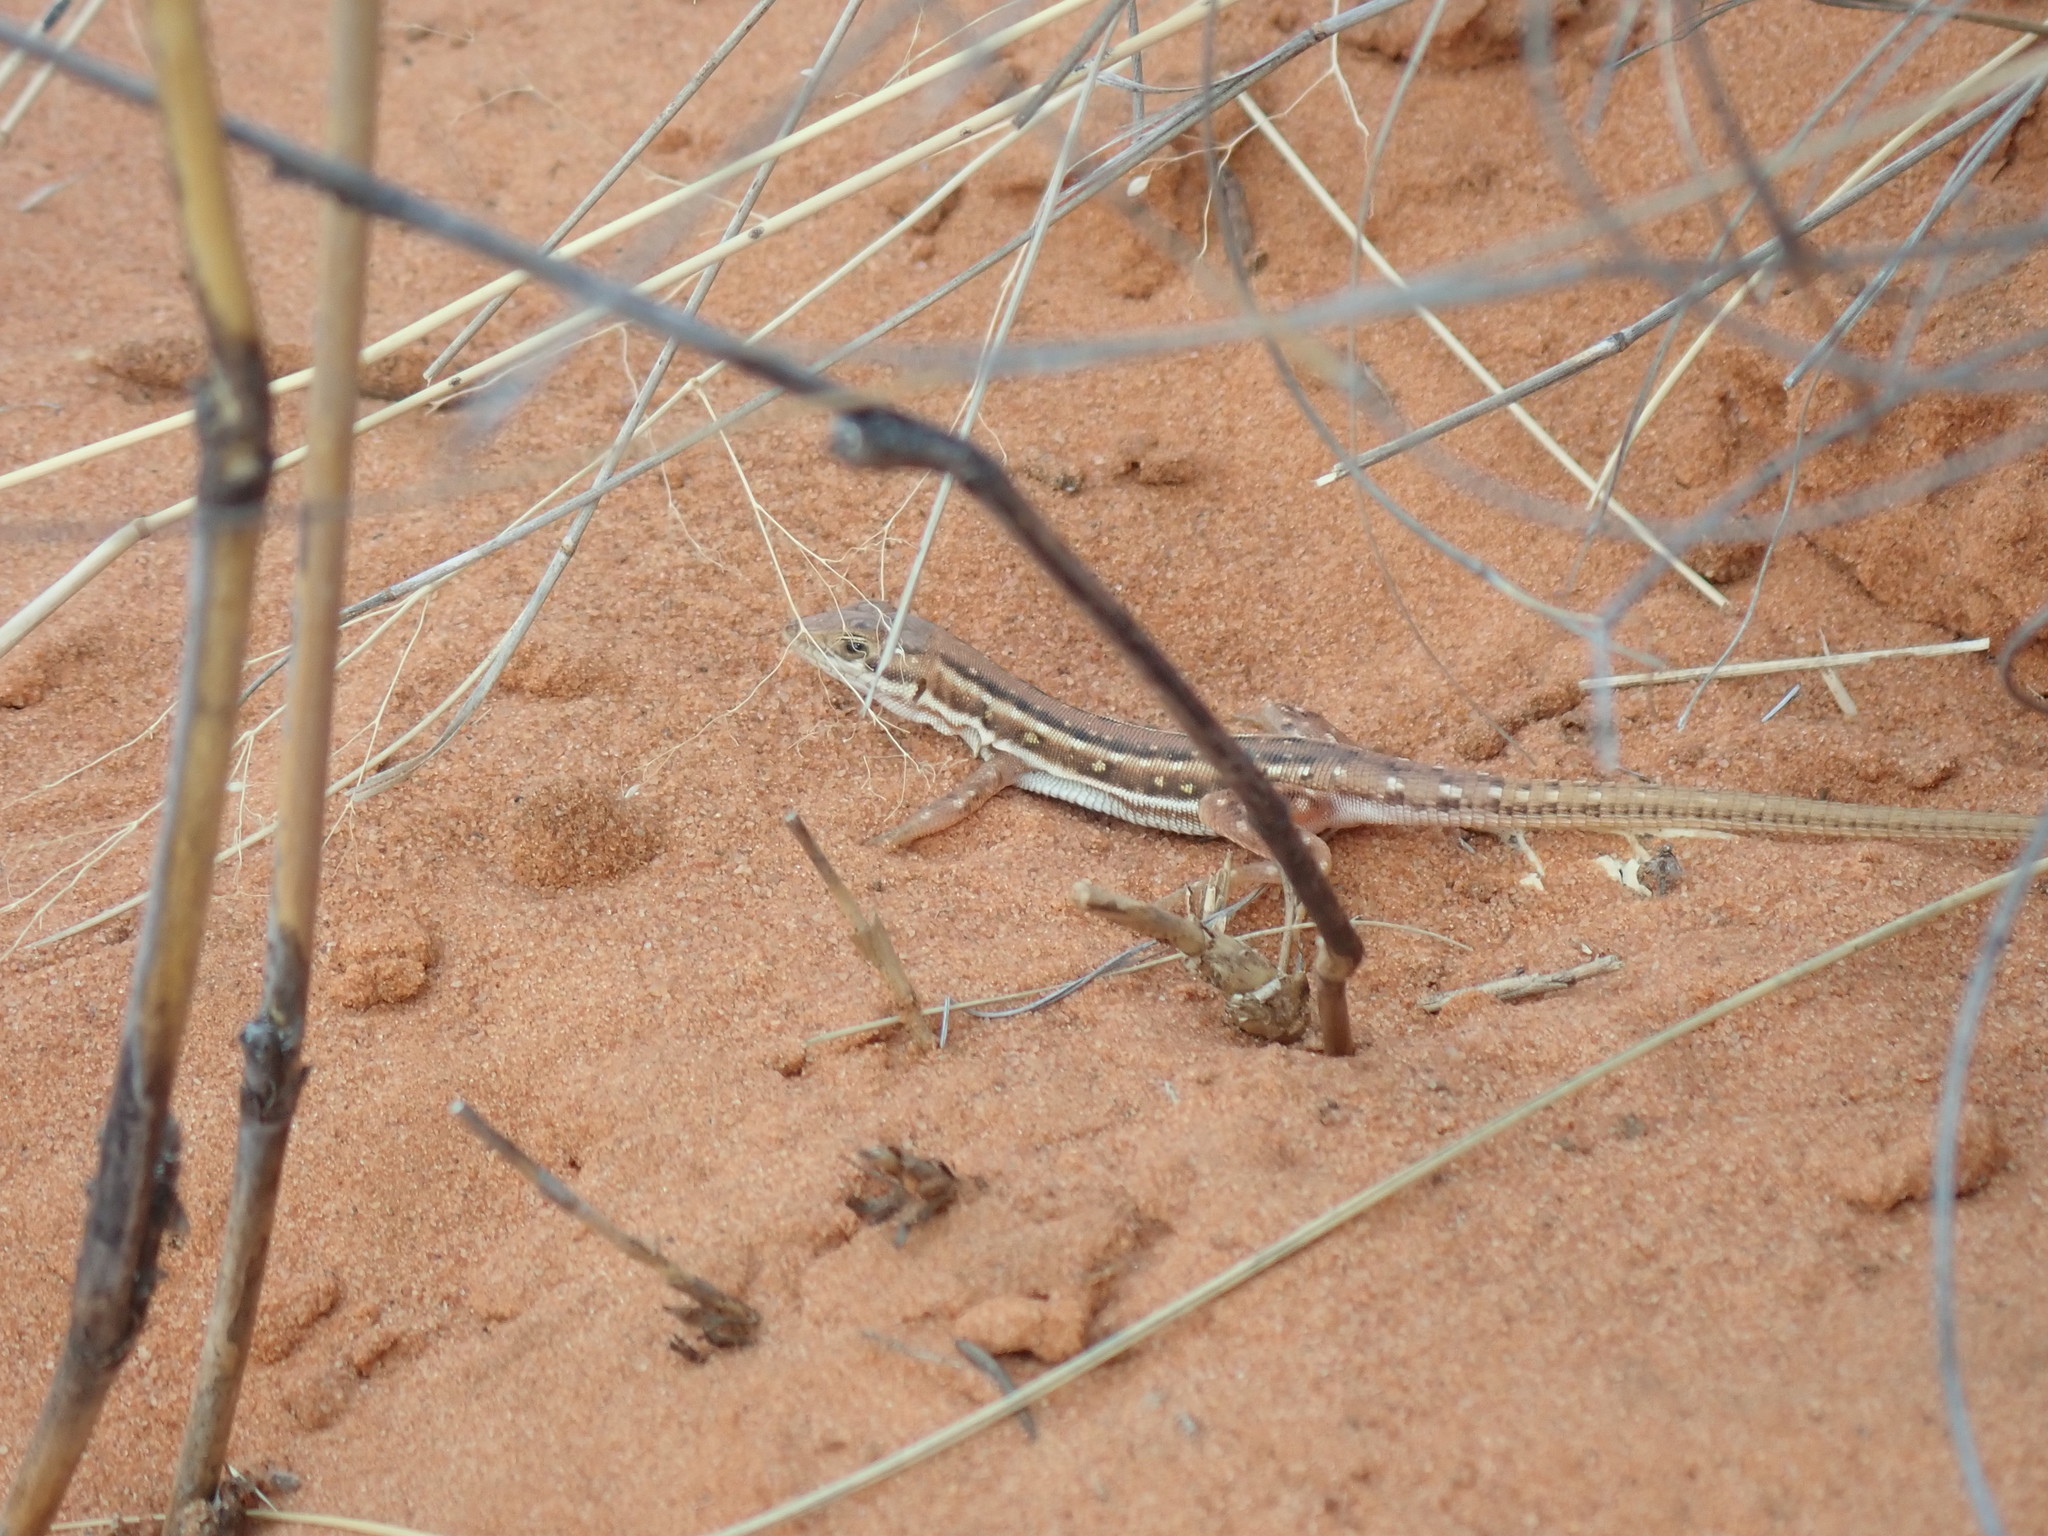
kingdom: Animalia
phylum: Chordata
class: Squamata
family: Lacertidae
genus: Pedioplanis
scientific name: Pedioplanis lineoocellata
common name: Spotted sand lizard
